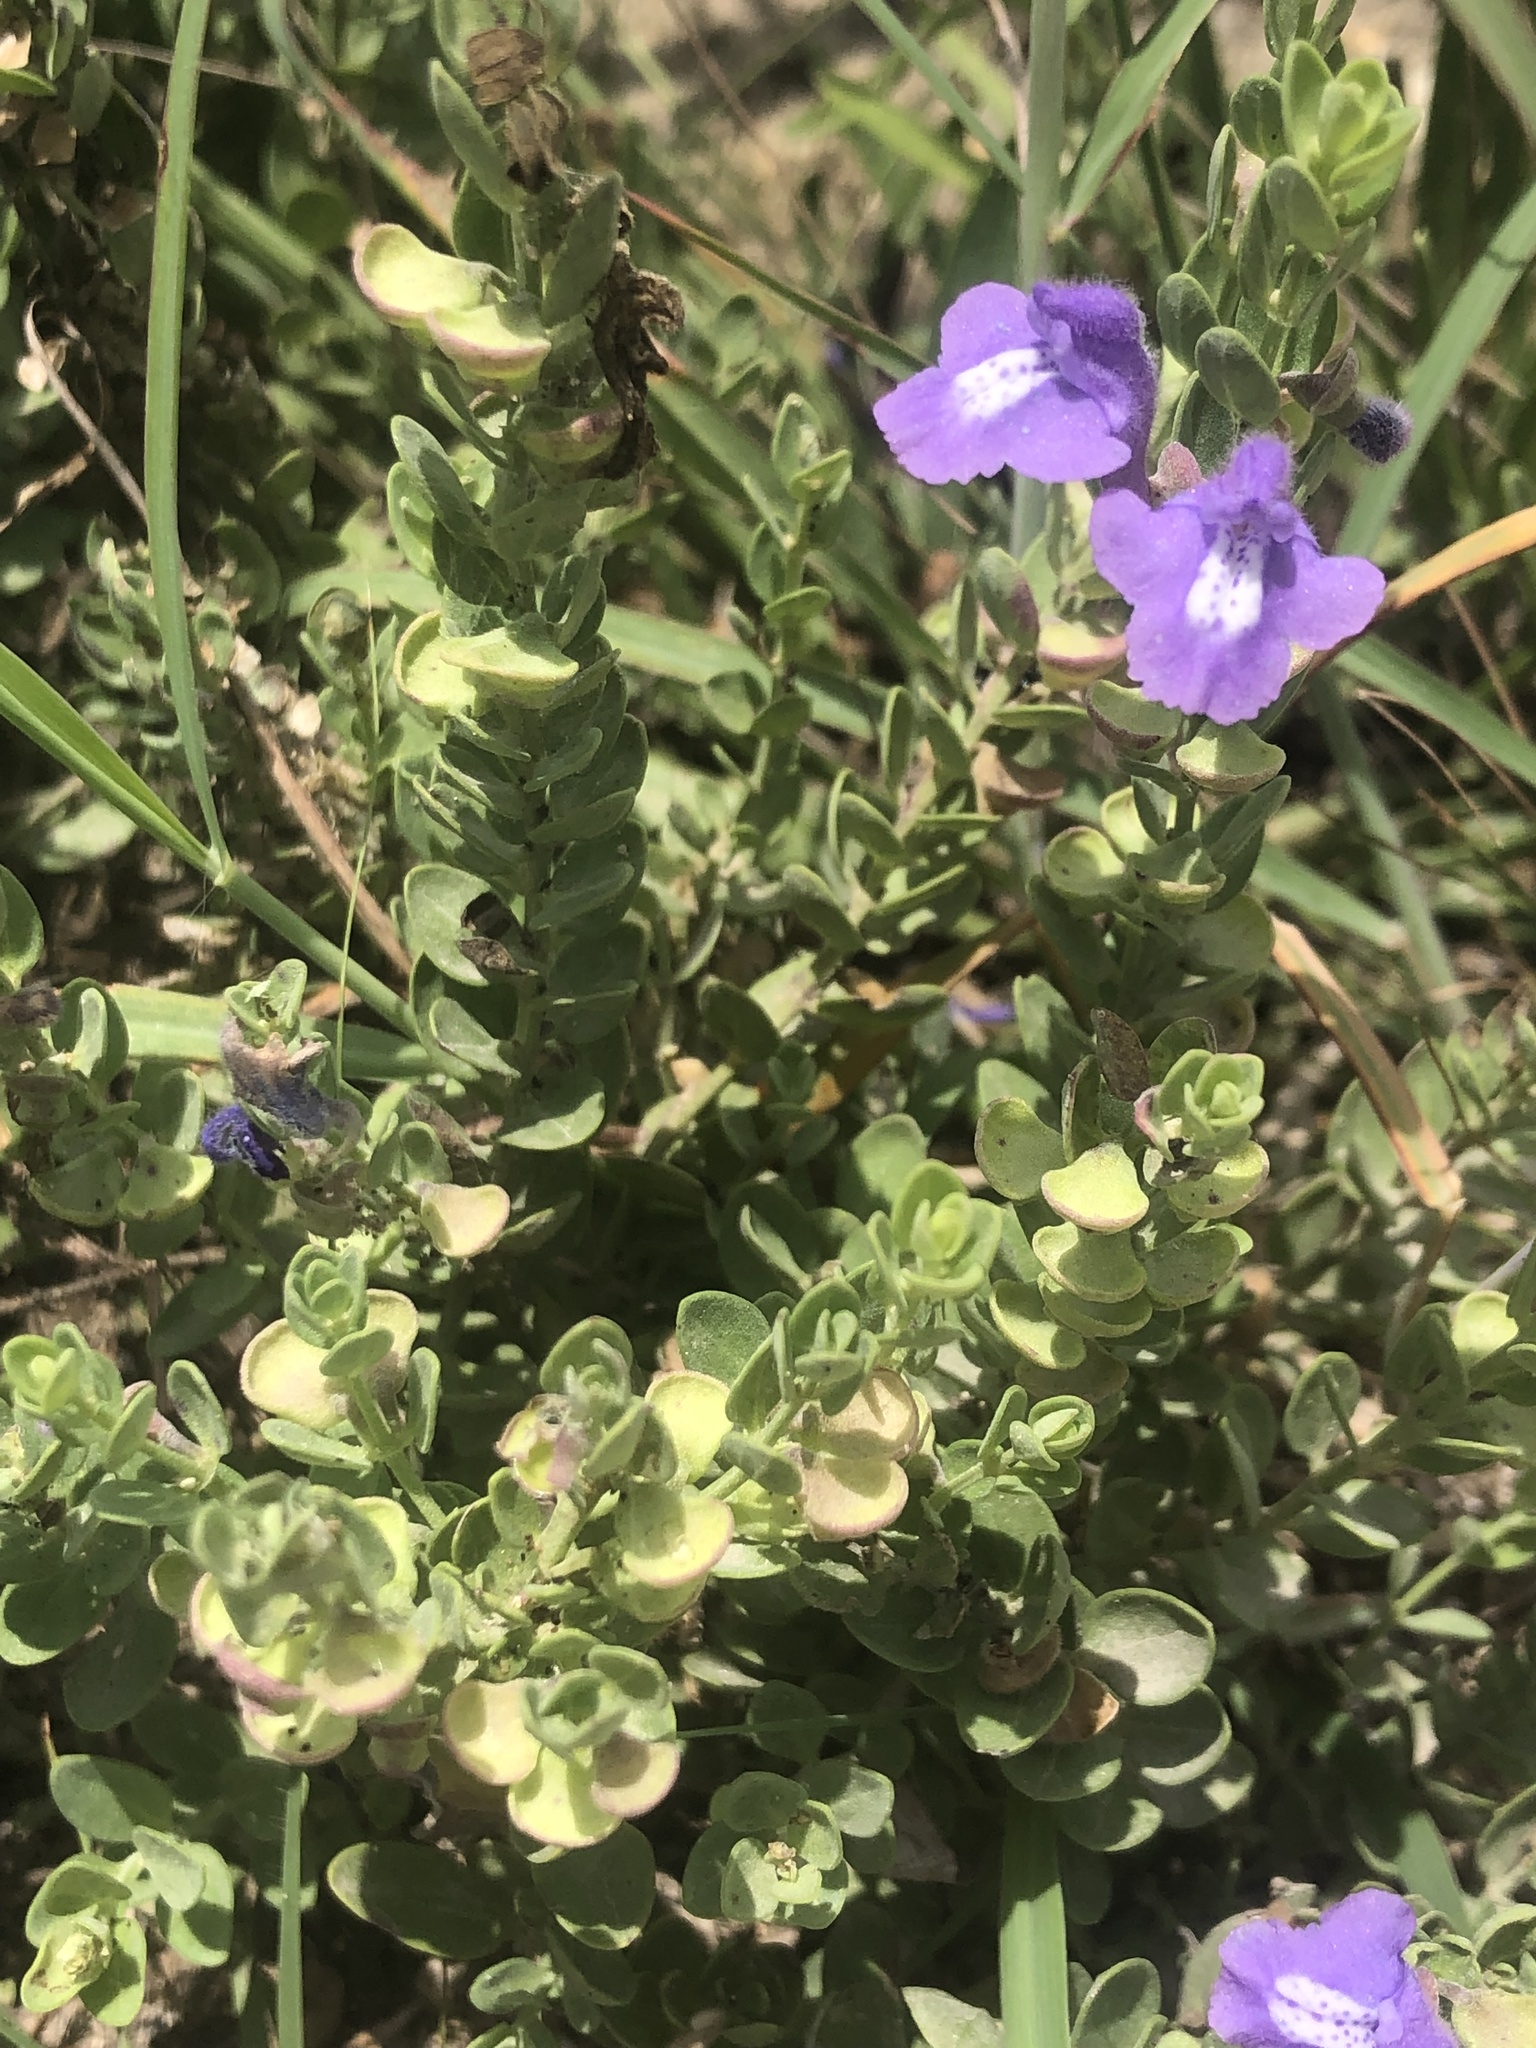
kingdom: Plantae
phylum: Tracheophyta
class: Magnoliopsida
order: Lamiales
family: Lamiaceae
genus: Scutellaria
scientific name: Scutellaria wrightii
